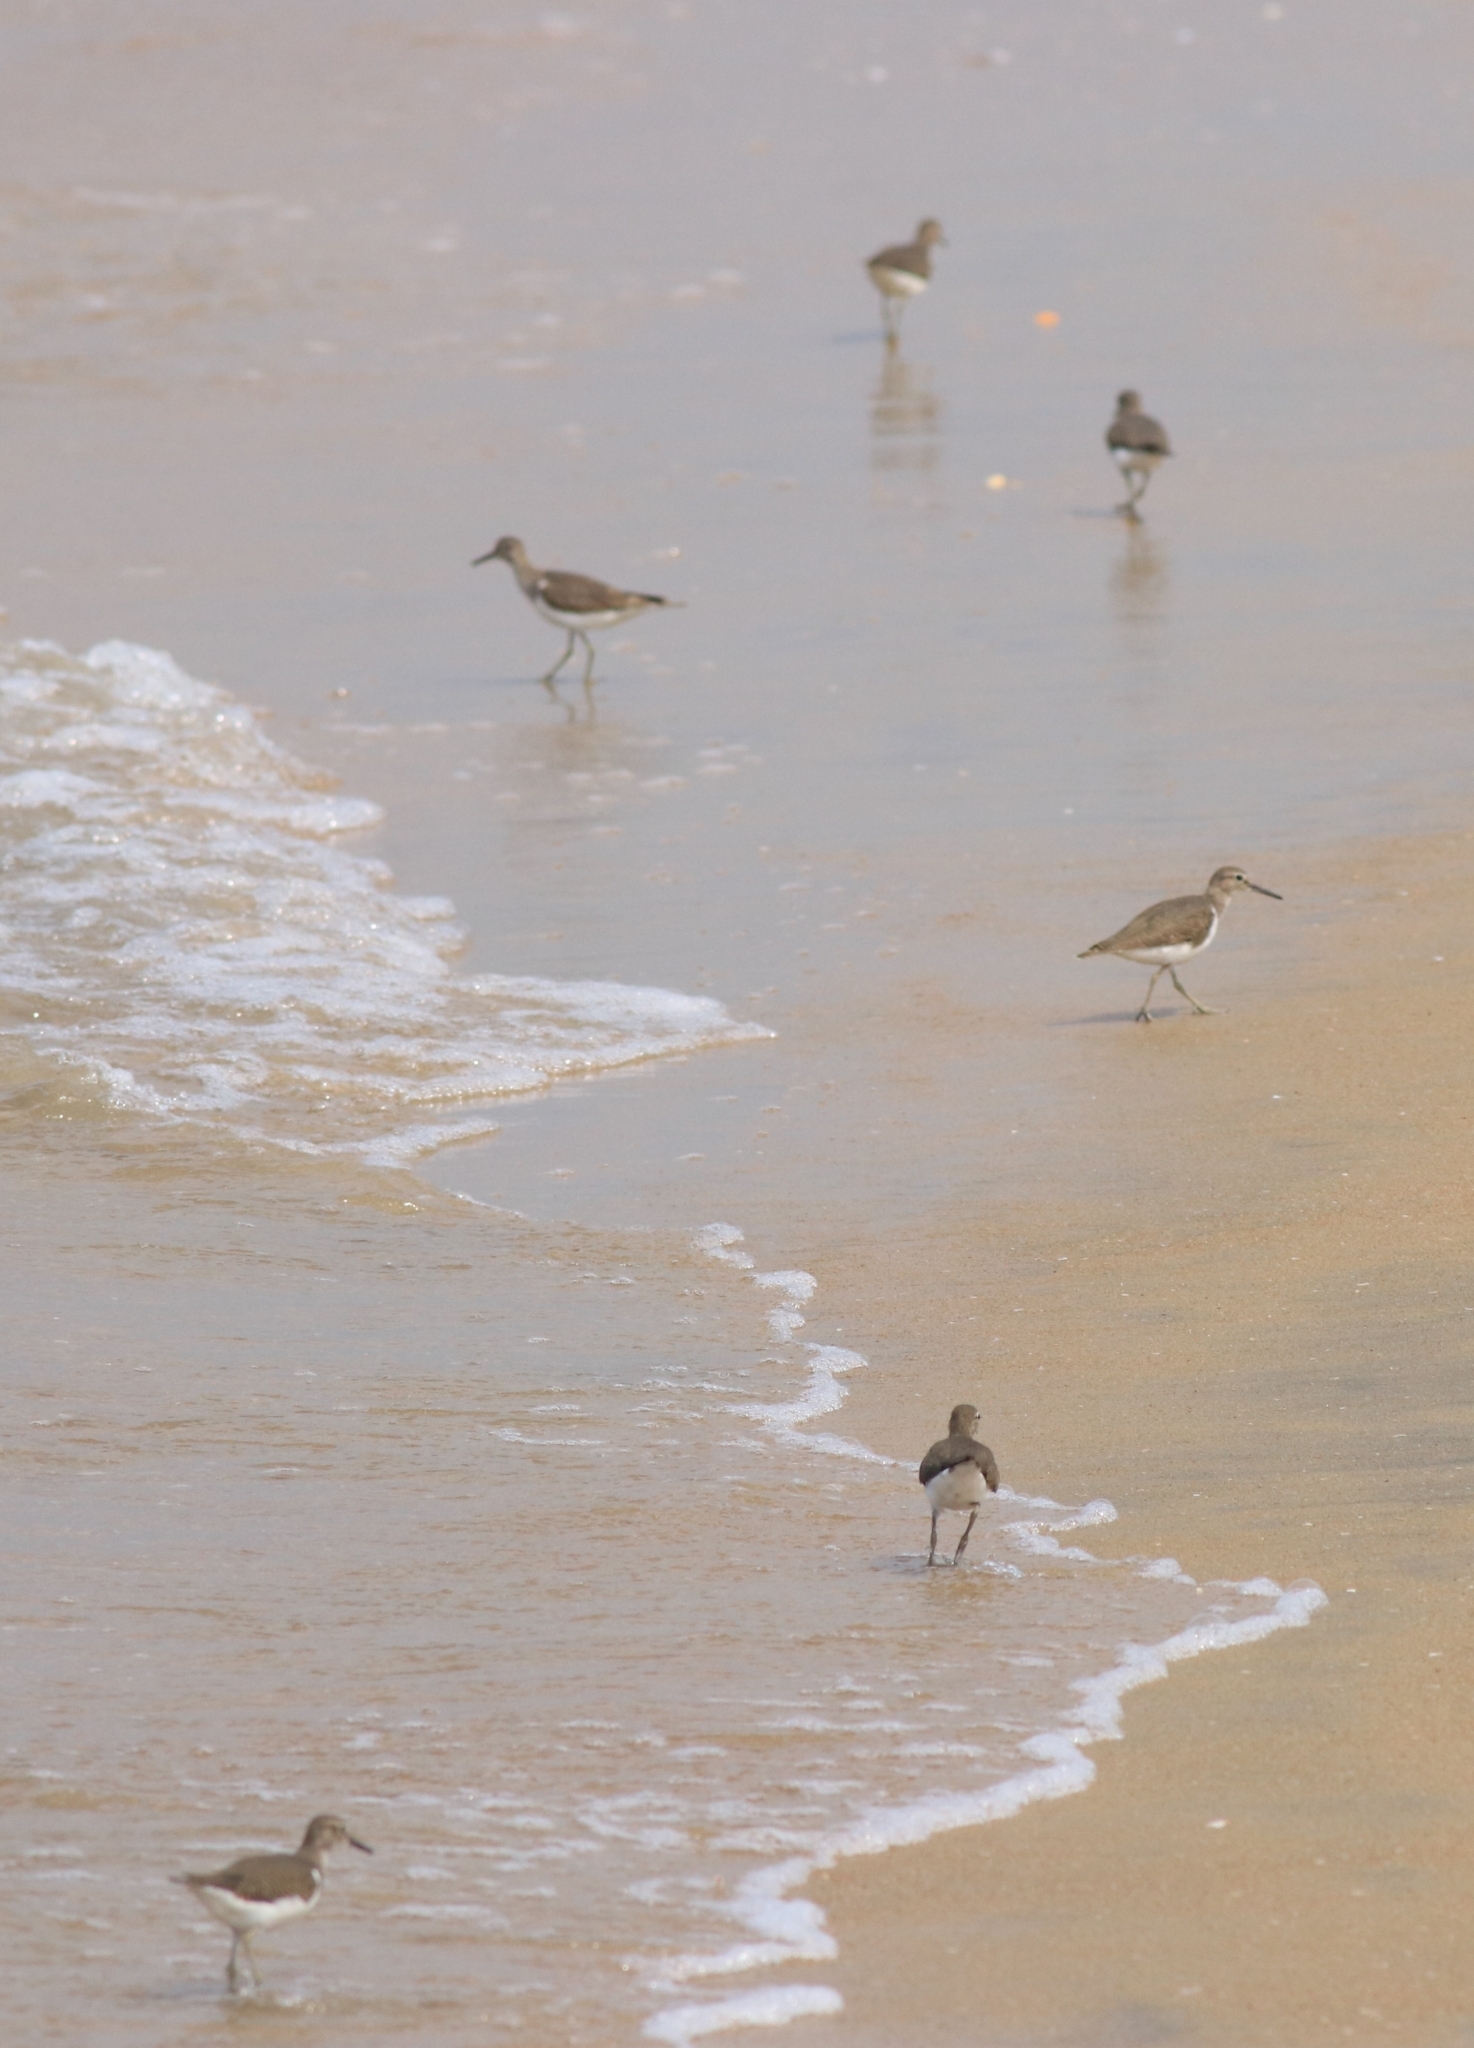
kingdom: Animalia
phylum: Chordata
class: Aves
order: Charadriiformes
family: Scolopacidae
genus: Actitis
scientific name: Actitis hypoleucos
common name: Common sandpiper
